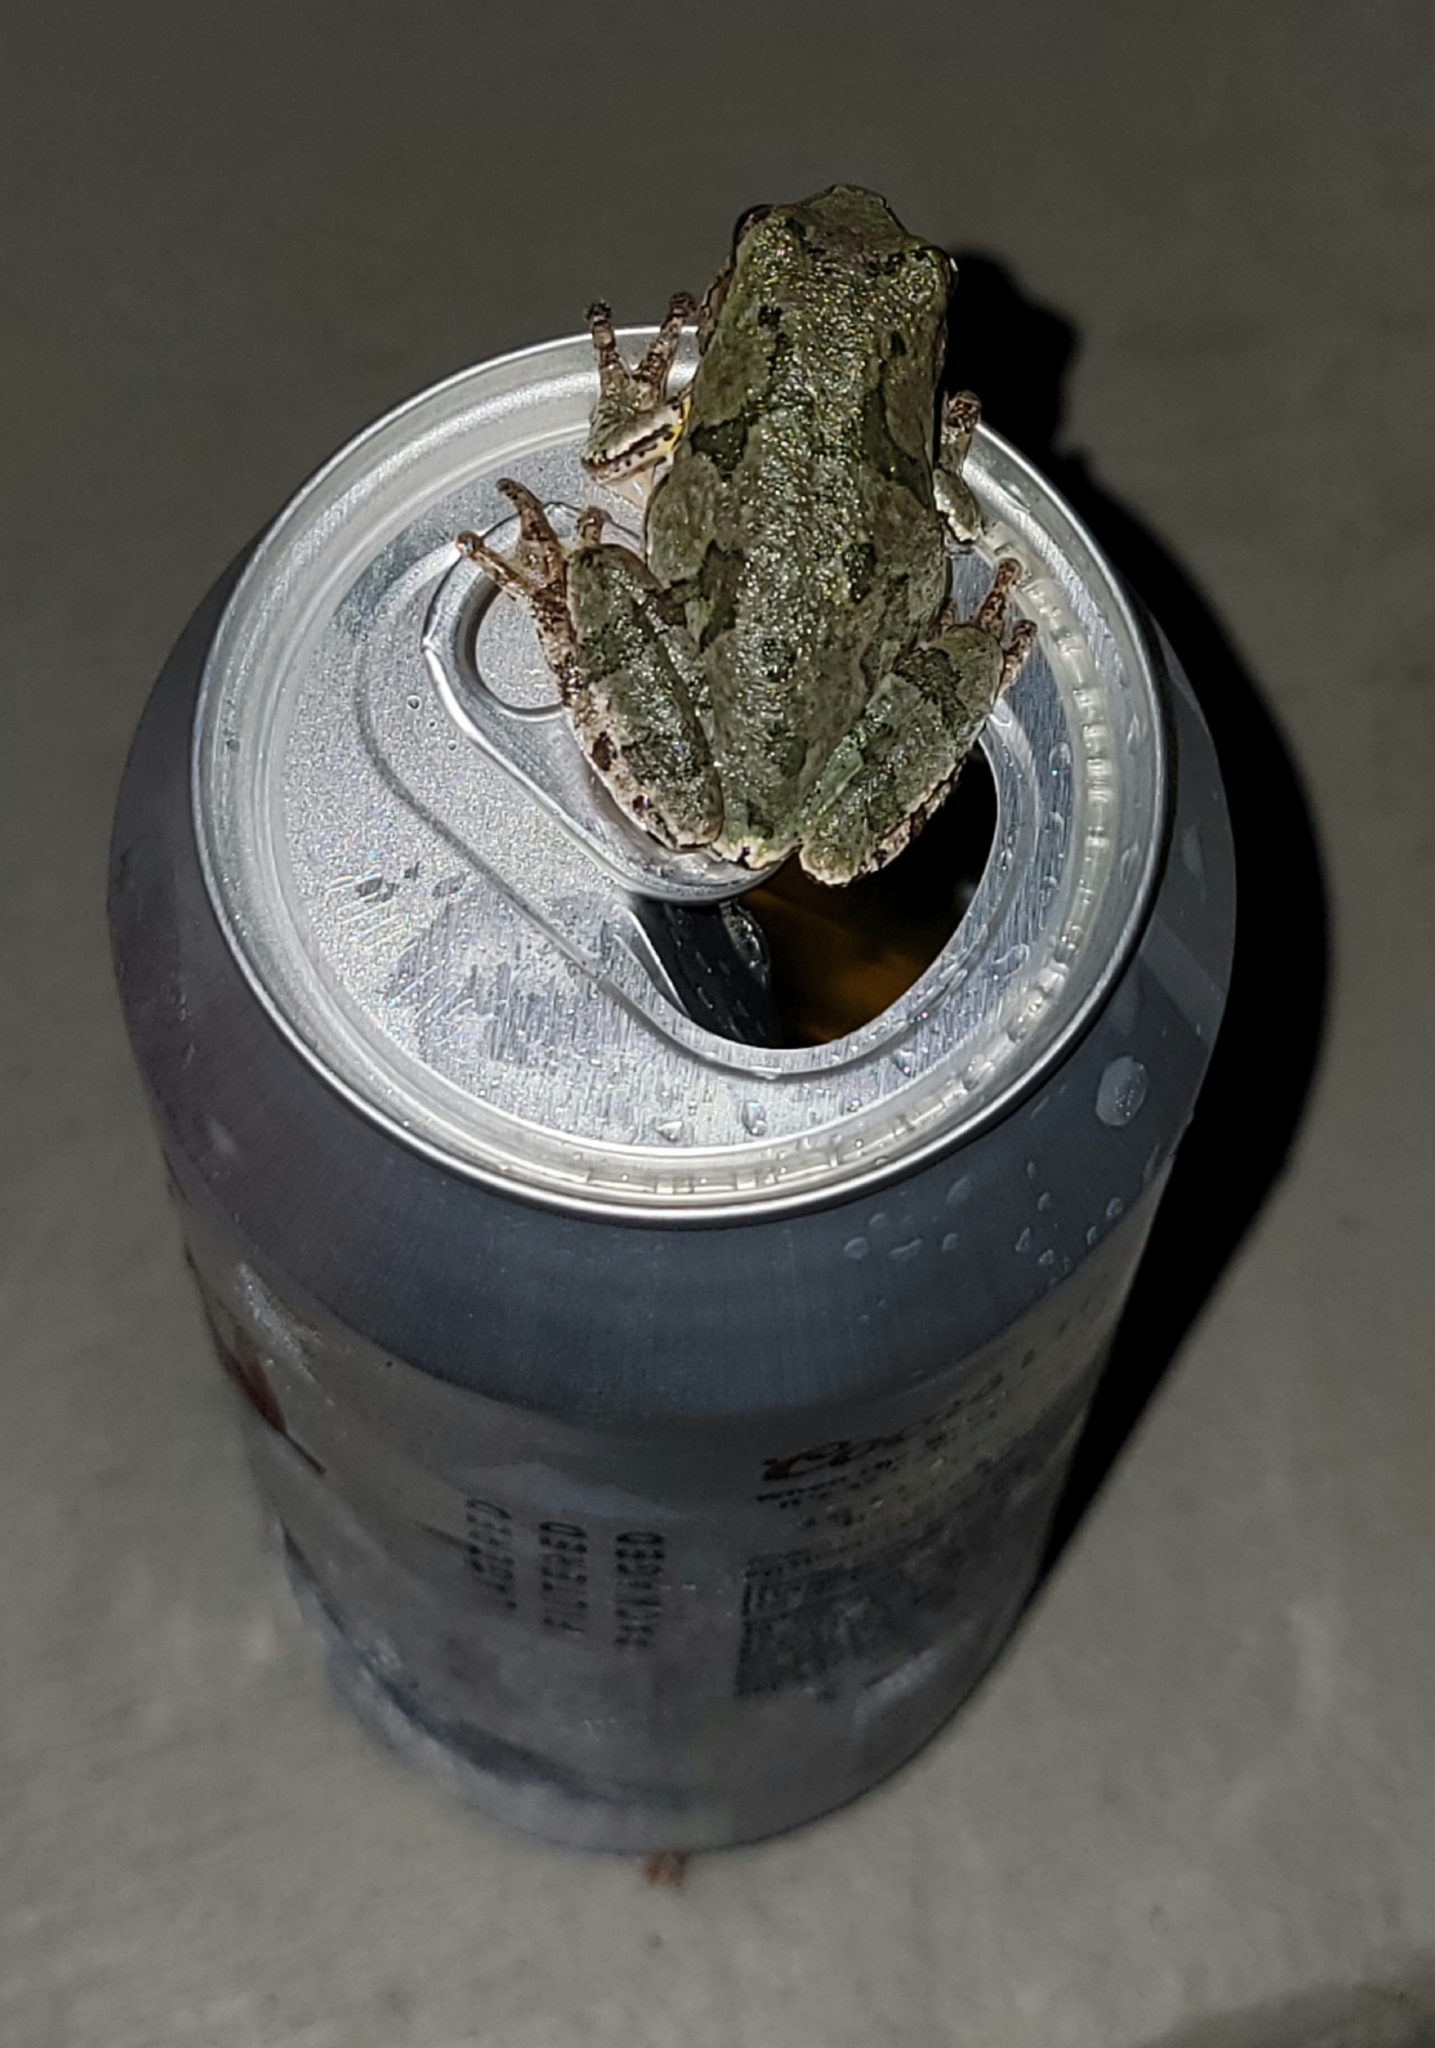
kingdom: Animalia
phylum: Chordata
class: Amphibia
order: Anura
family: Hylidae
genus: Hyla
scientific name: Hyla
